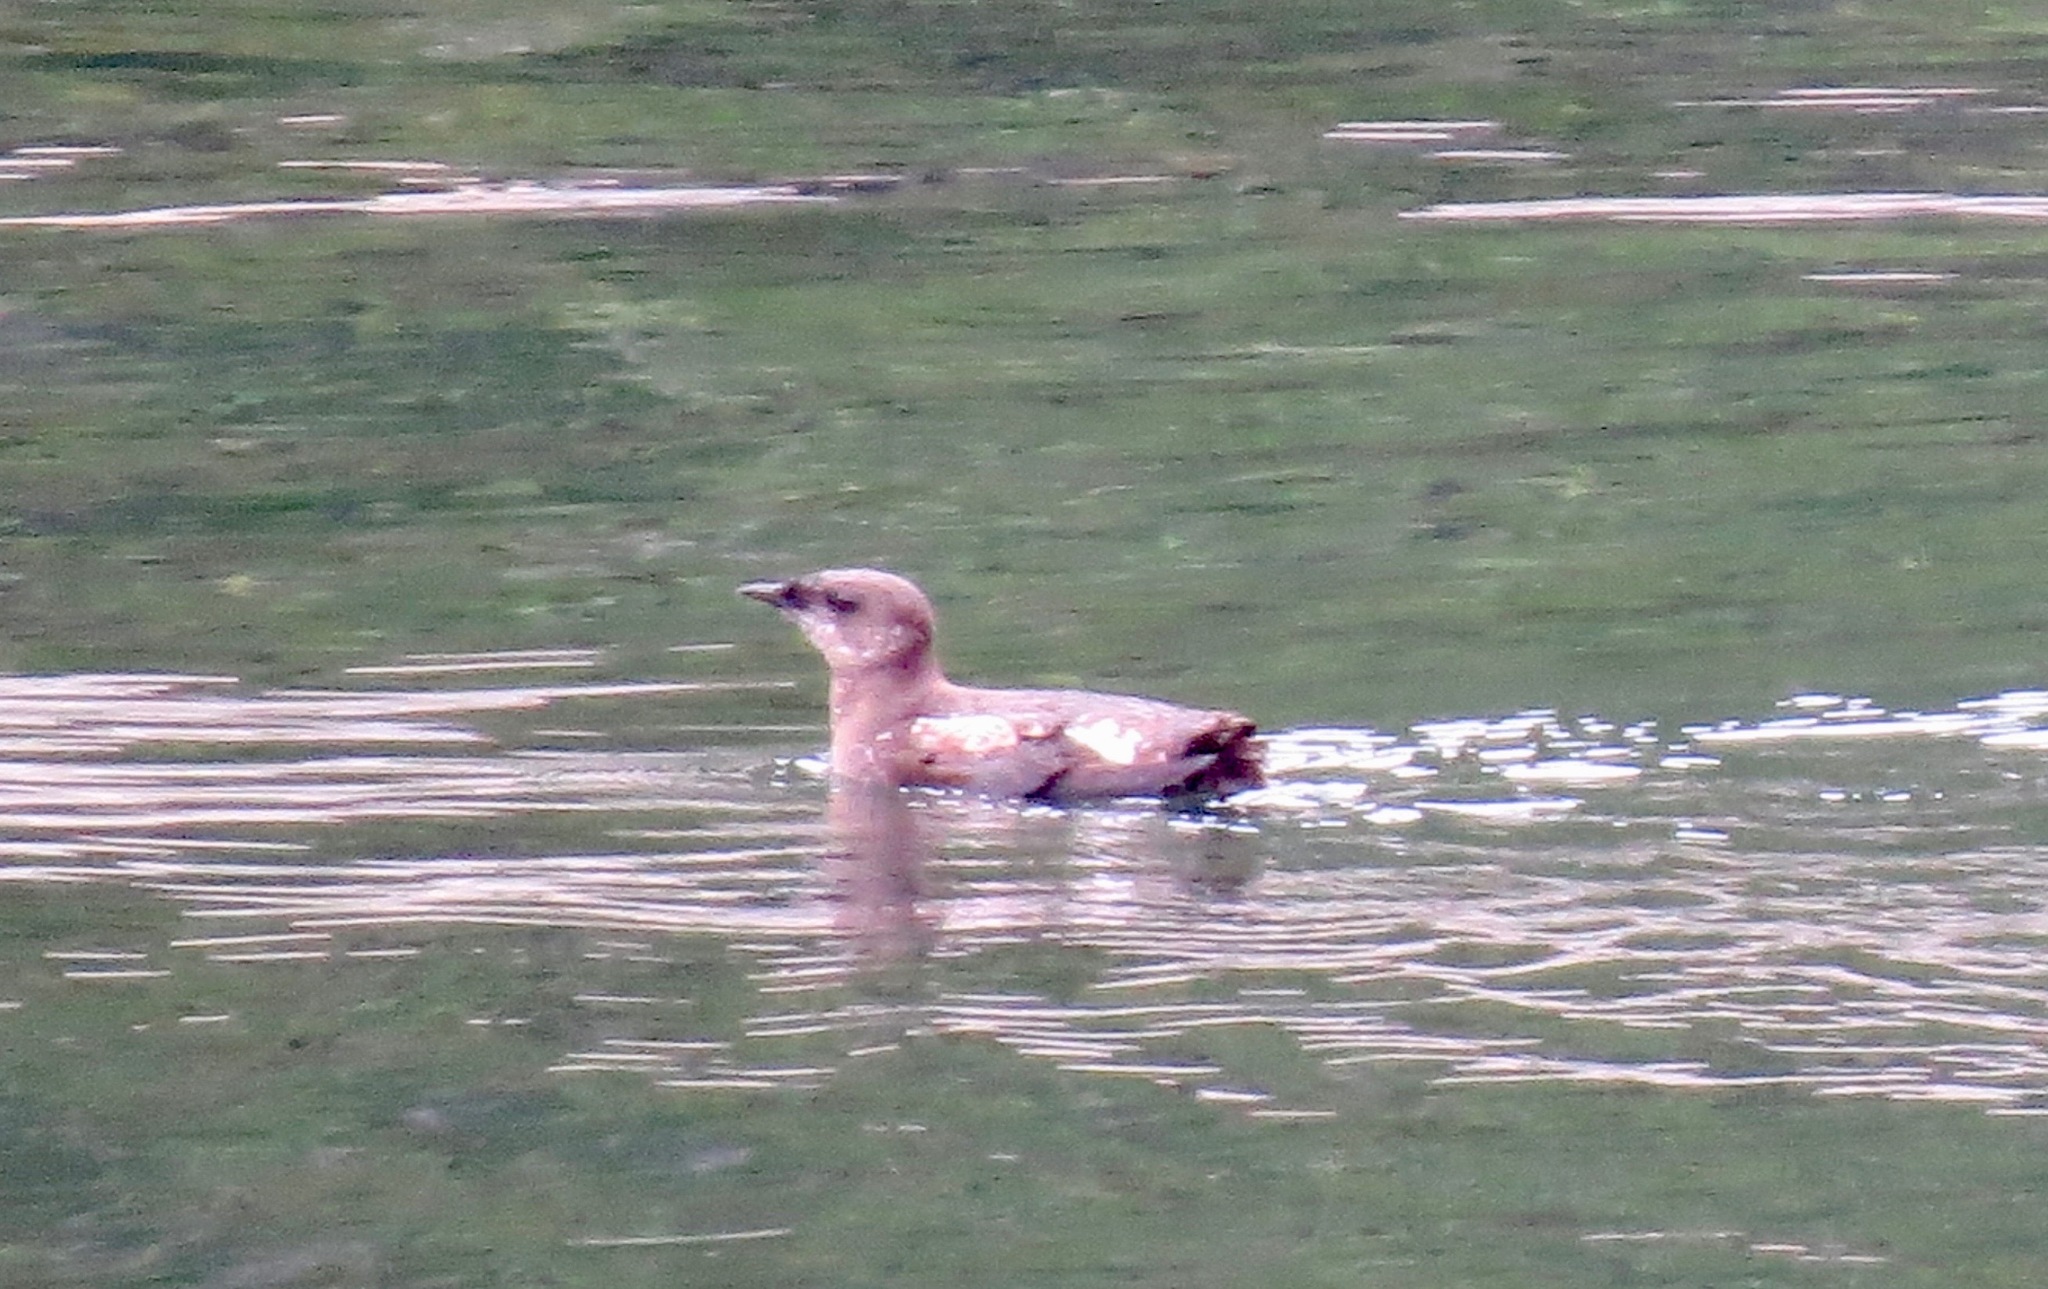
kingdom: Animalia
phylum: Chordata
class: Aves
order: Charadriiformes
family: Alcidae
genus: Brachyramphus
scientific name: Brachyramphus marmoratus
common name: Marbled murrelet
